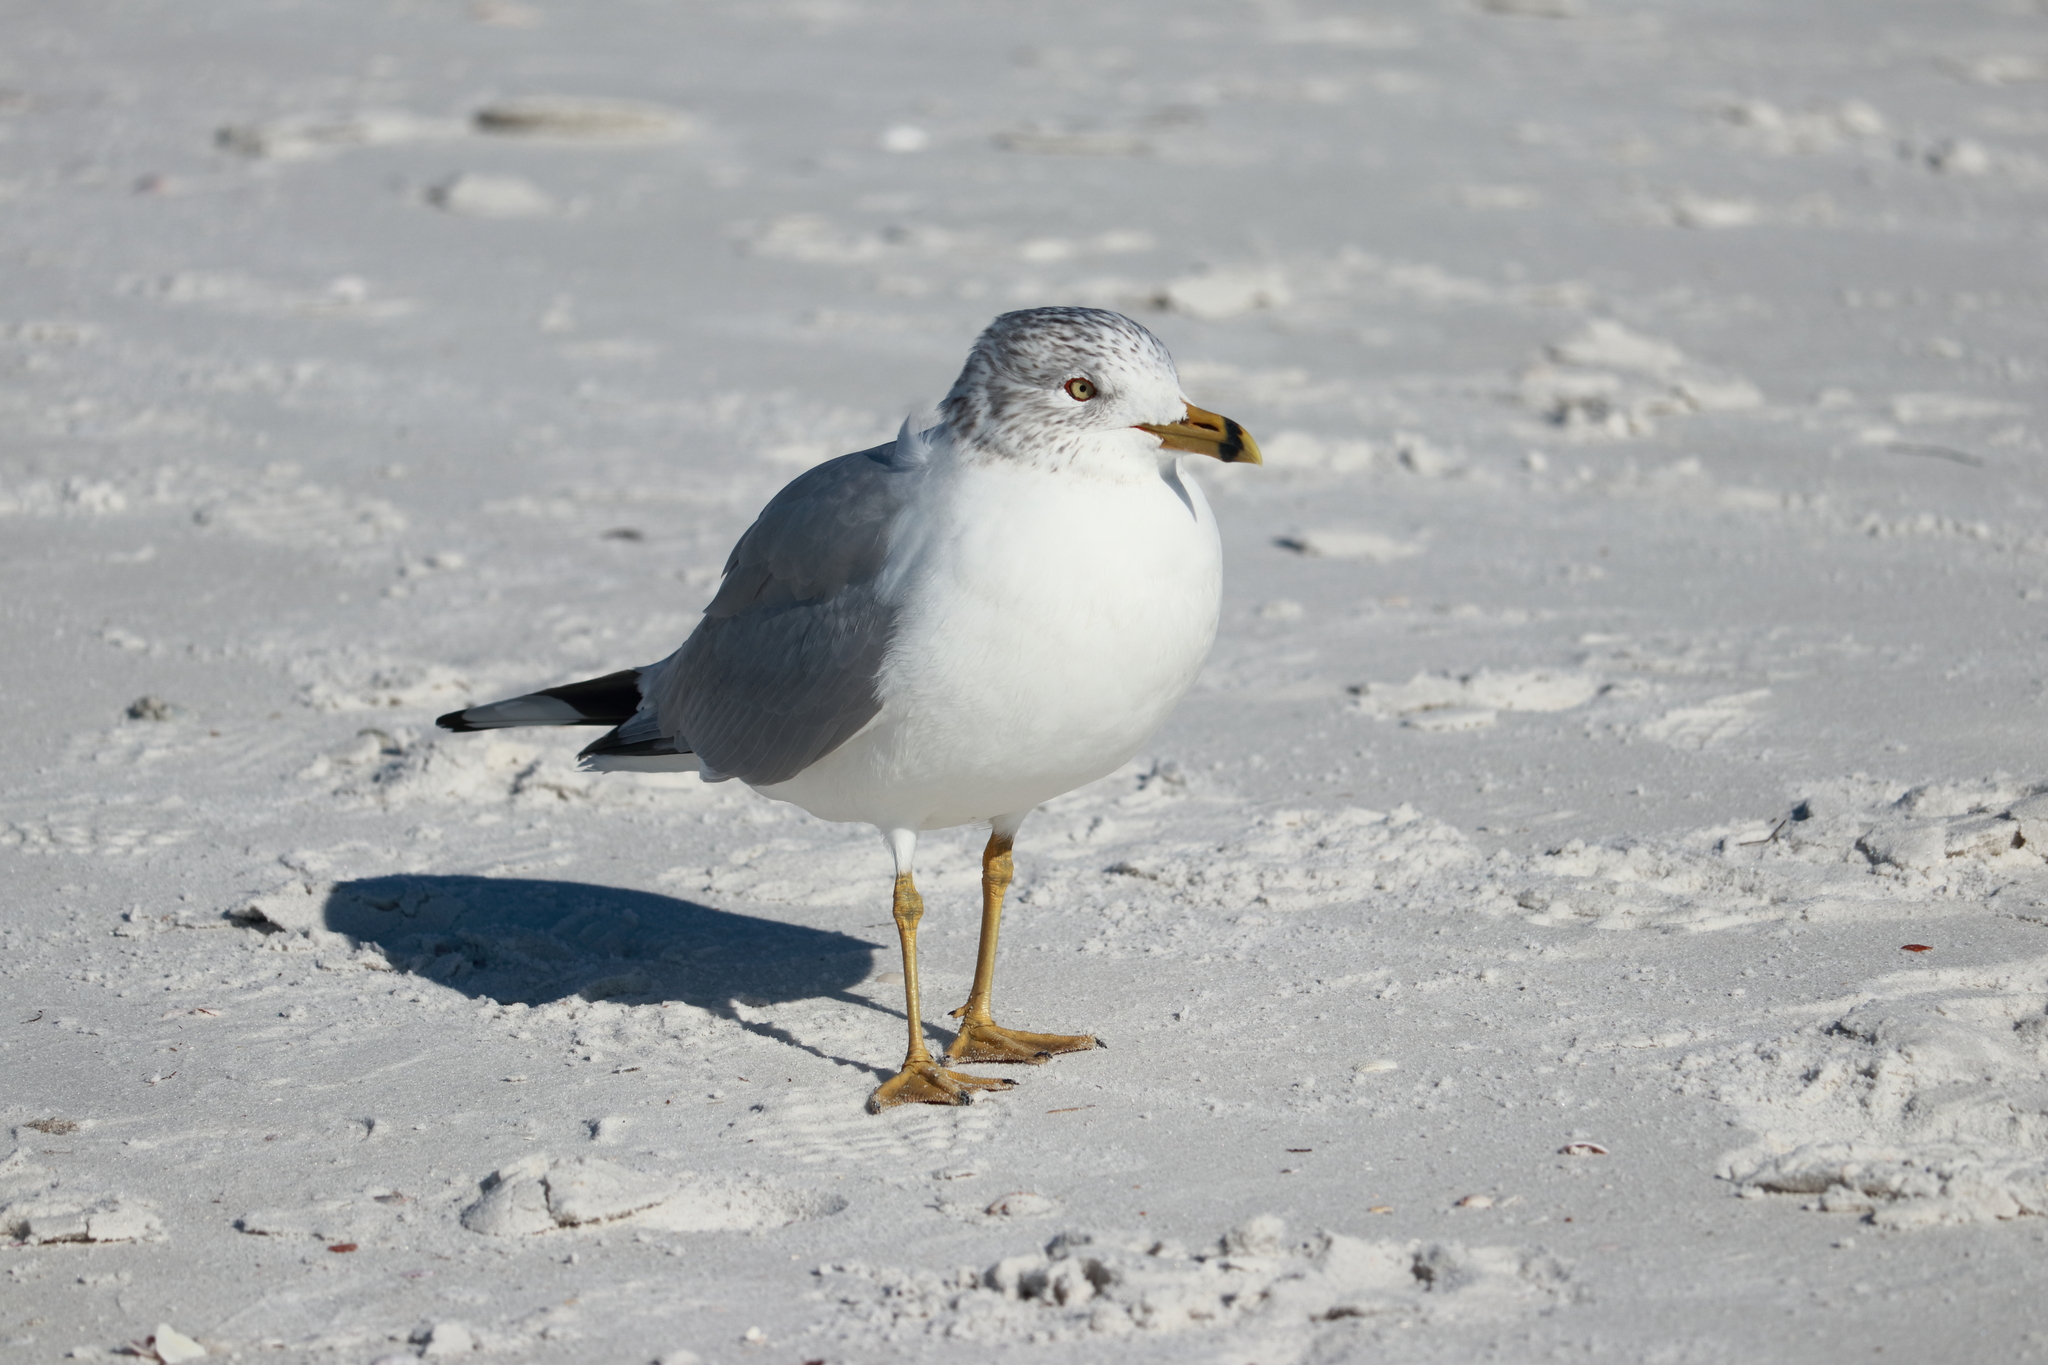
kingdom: Animalia
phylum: Chordata
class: Aves
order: Charadriiformes
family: Laridae
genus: Larus
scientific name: Larus delawarensis
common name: Ring-billed gull
